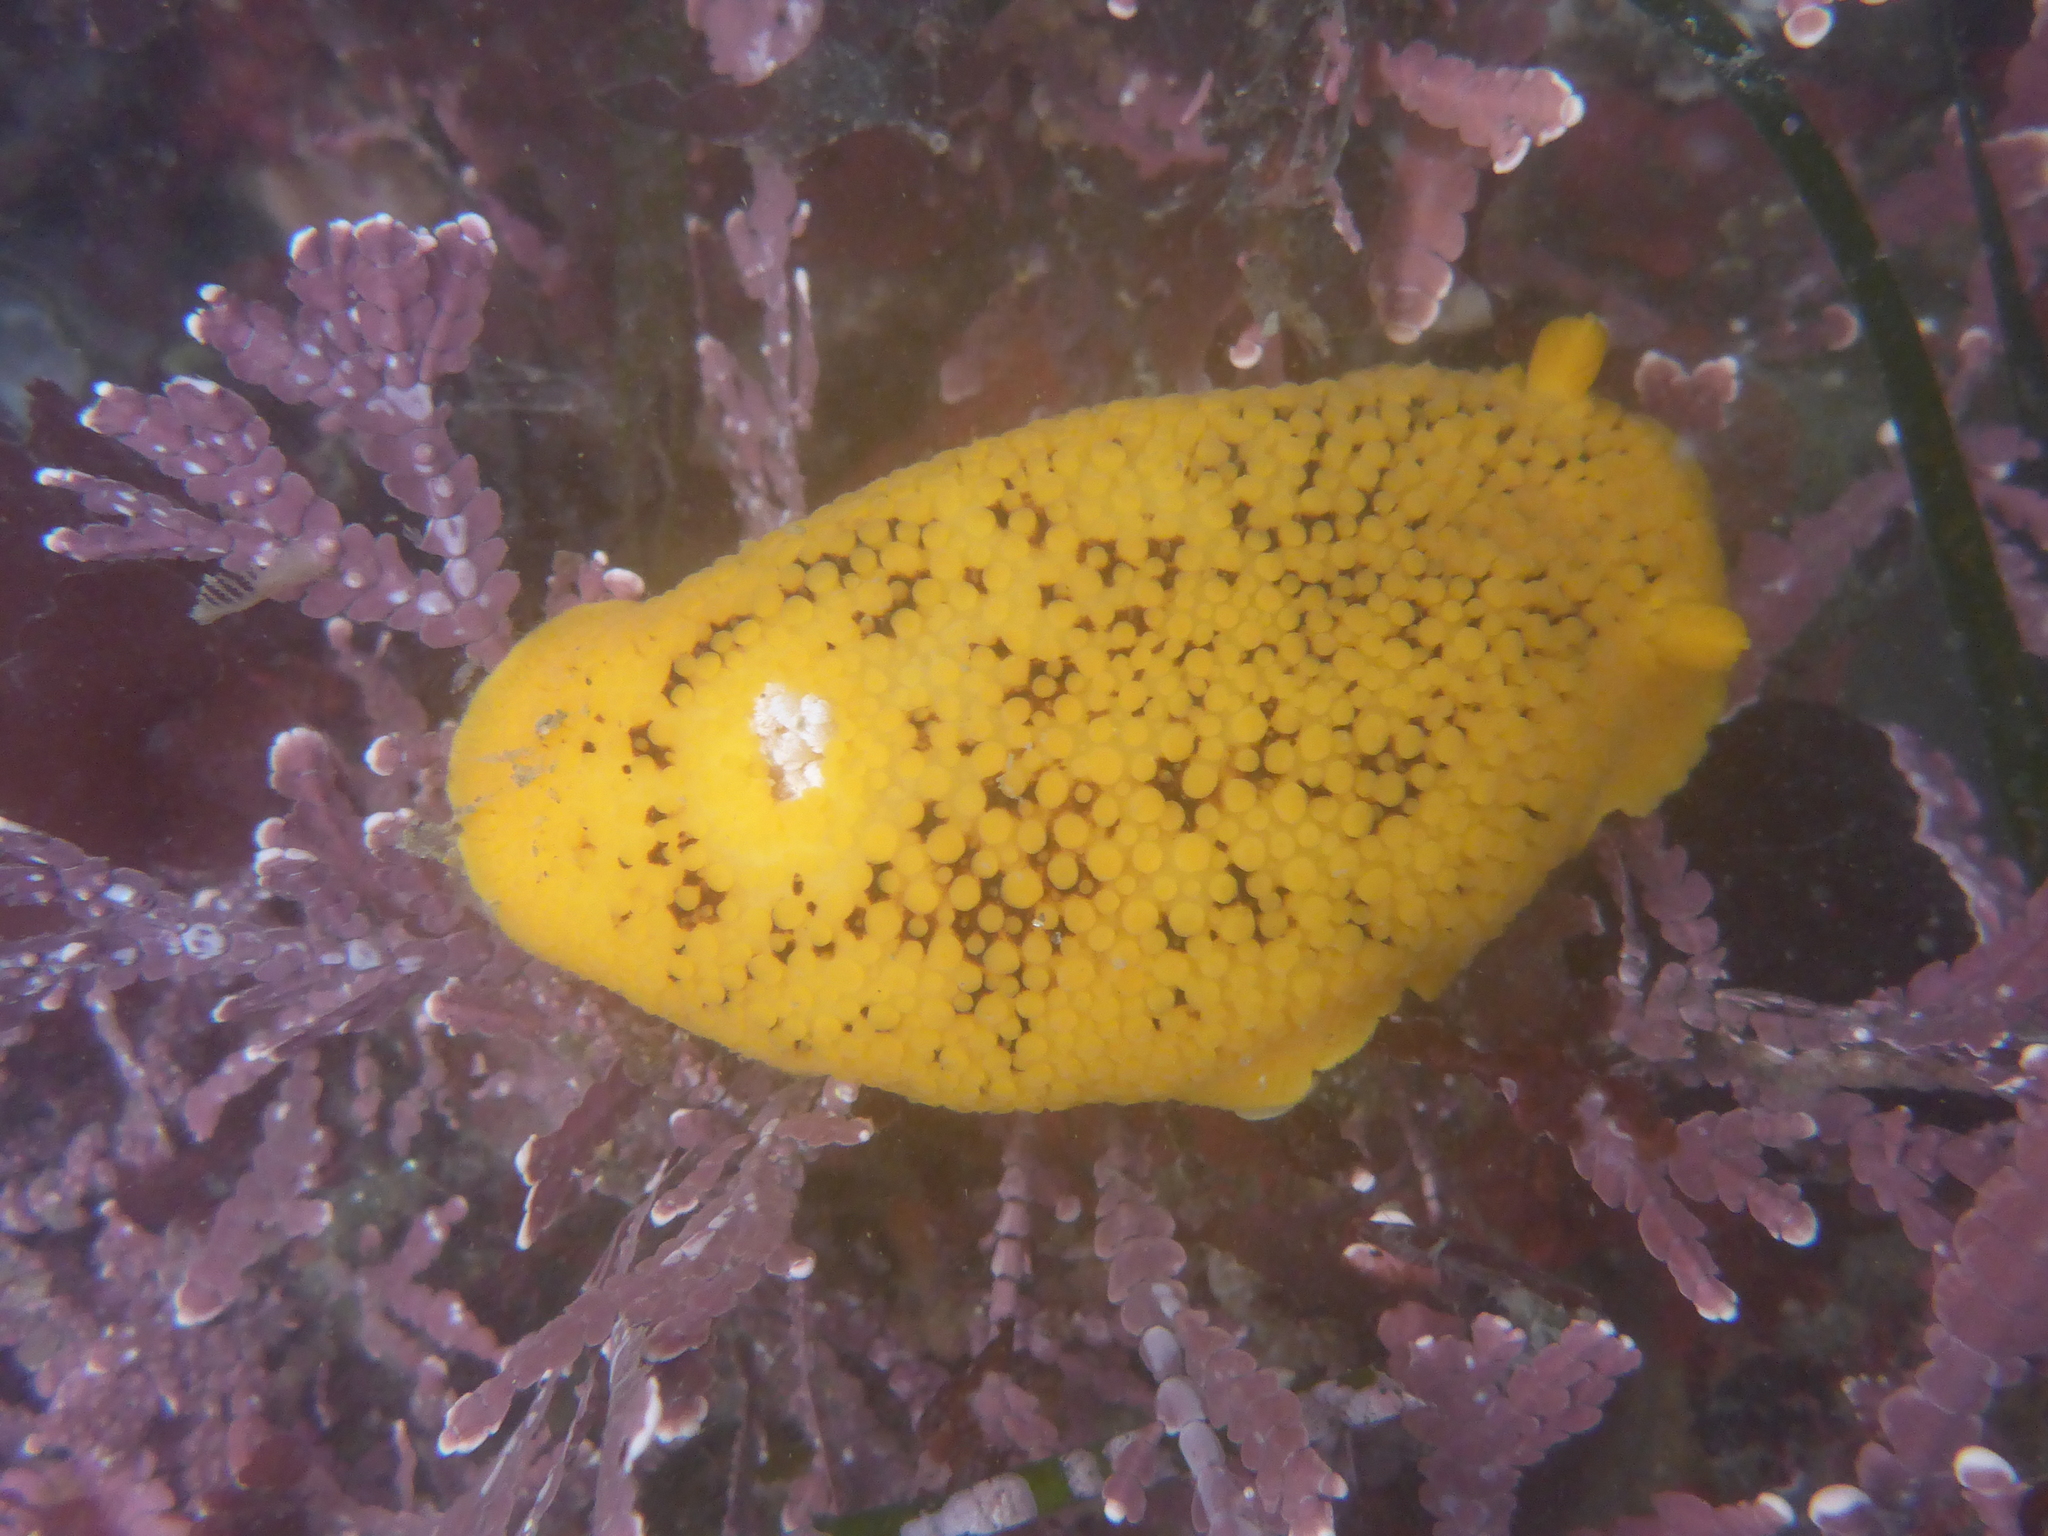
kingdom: Animalia
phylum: Mollusca
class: Gastropoda
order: Nudibranchia
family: Discodorididae
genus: Peltodoris
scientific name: Peltodoris nobilis
